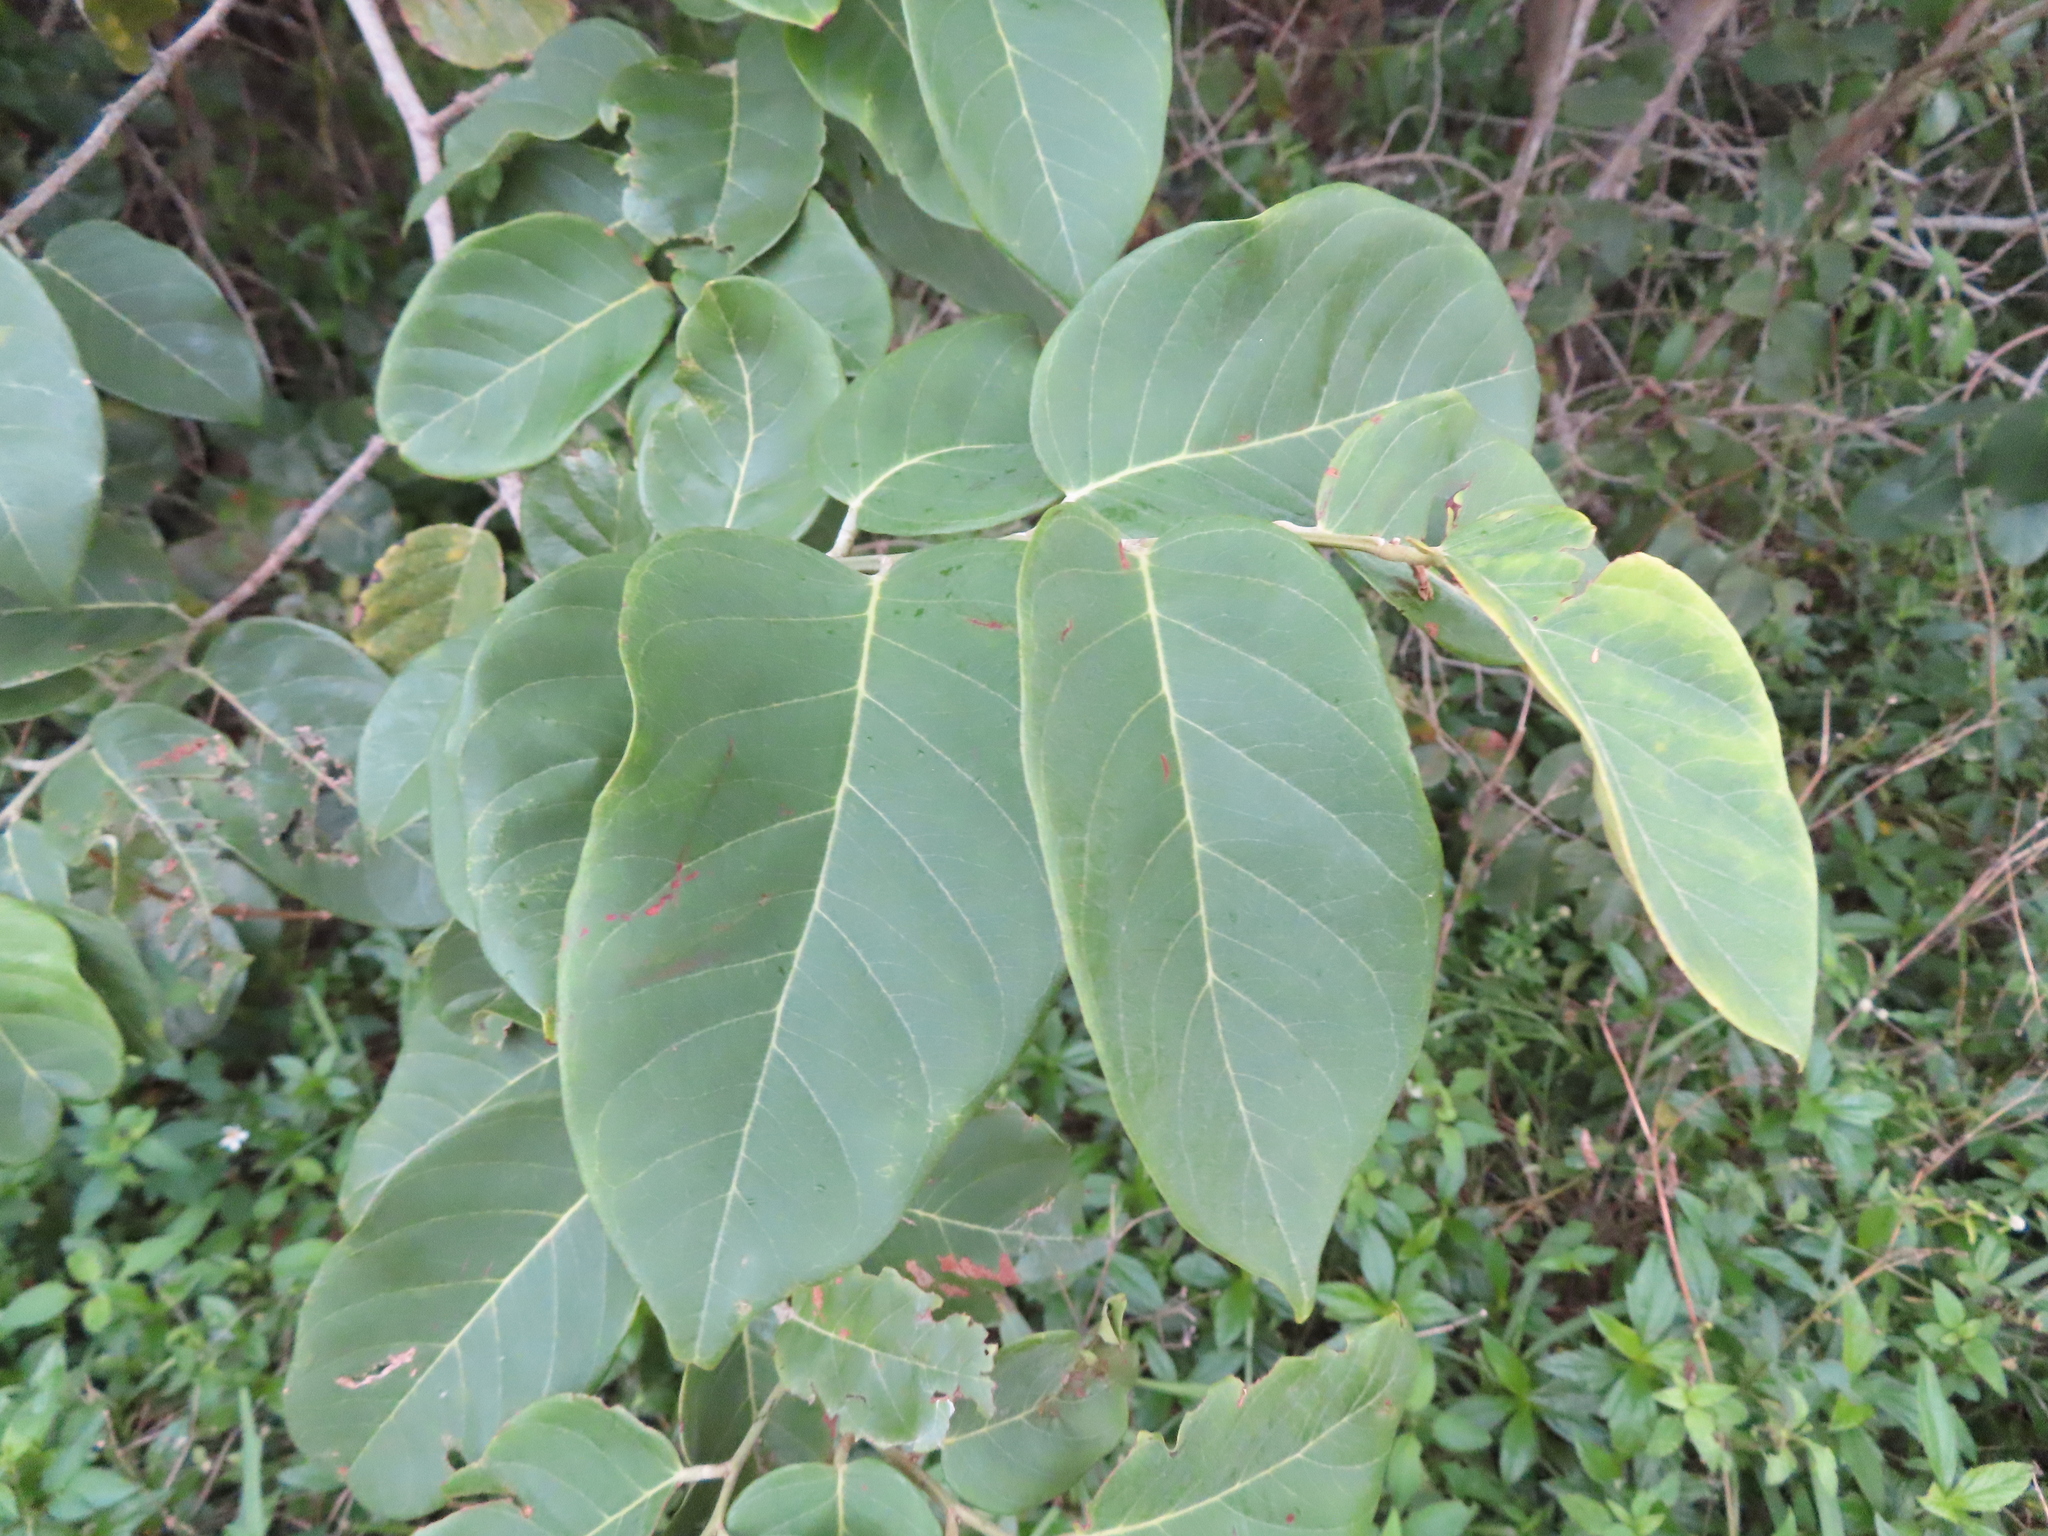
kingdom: Plantae
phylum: Tracheophyta
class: Magnoliopsida
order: Fabales
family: Fabaceae
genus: Dalbergia
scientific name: Dalbergia ecastaphyllum
